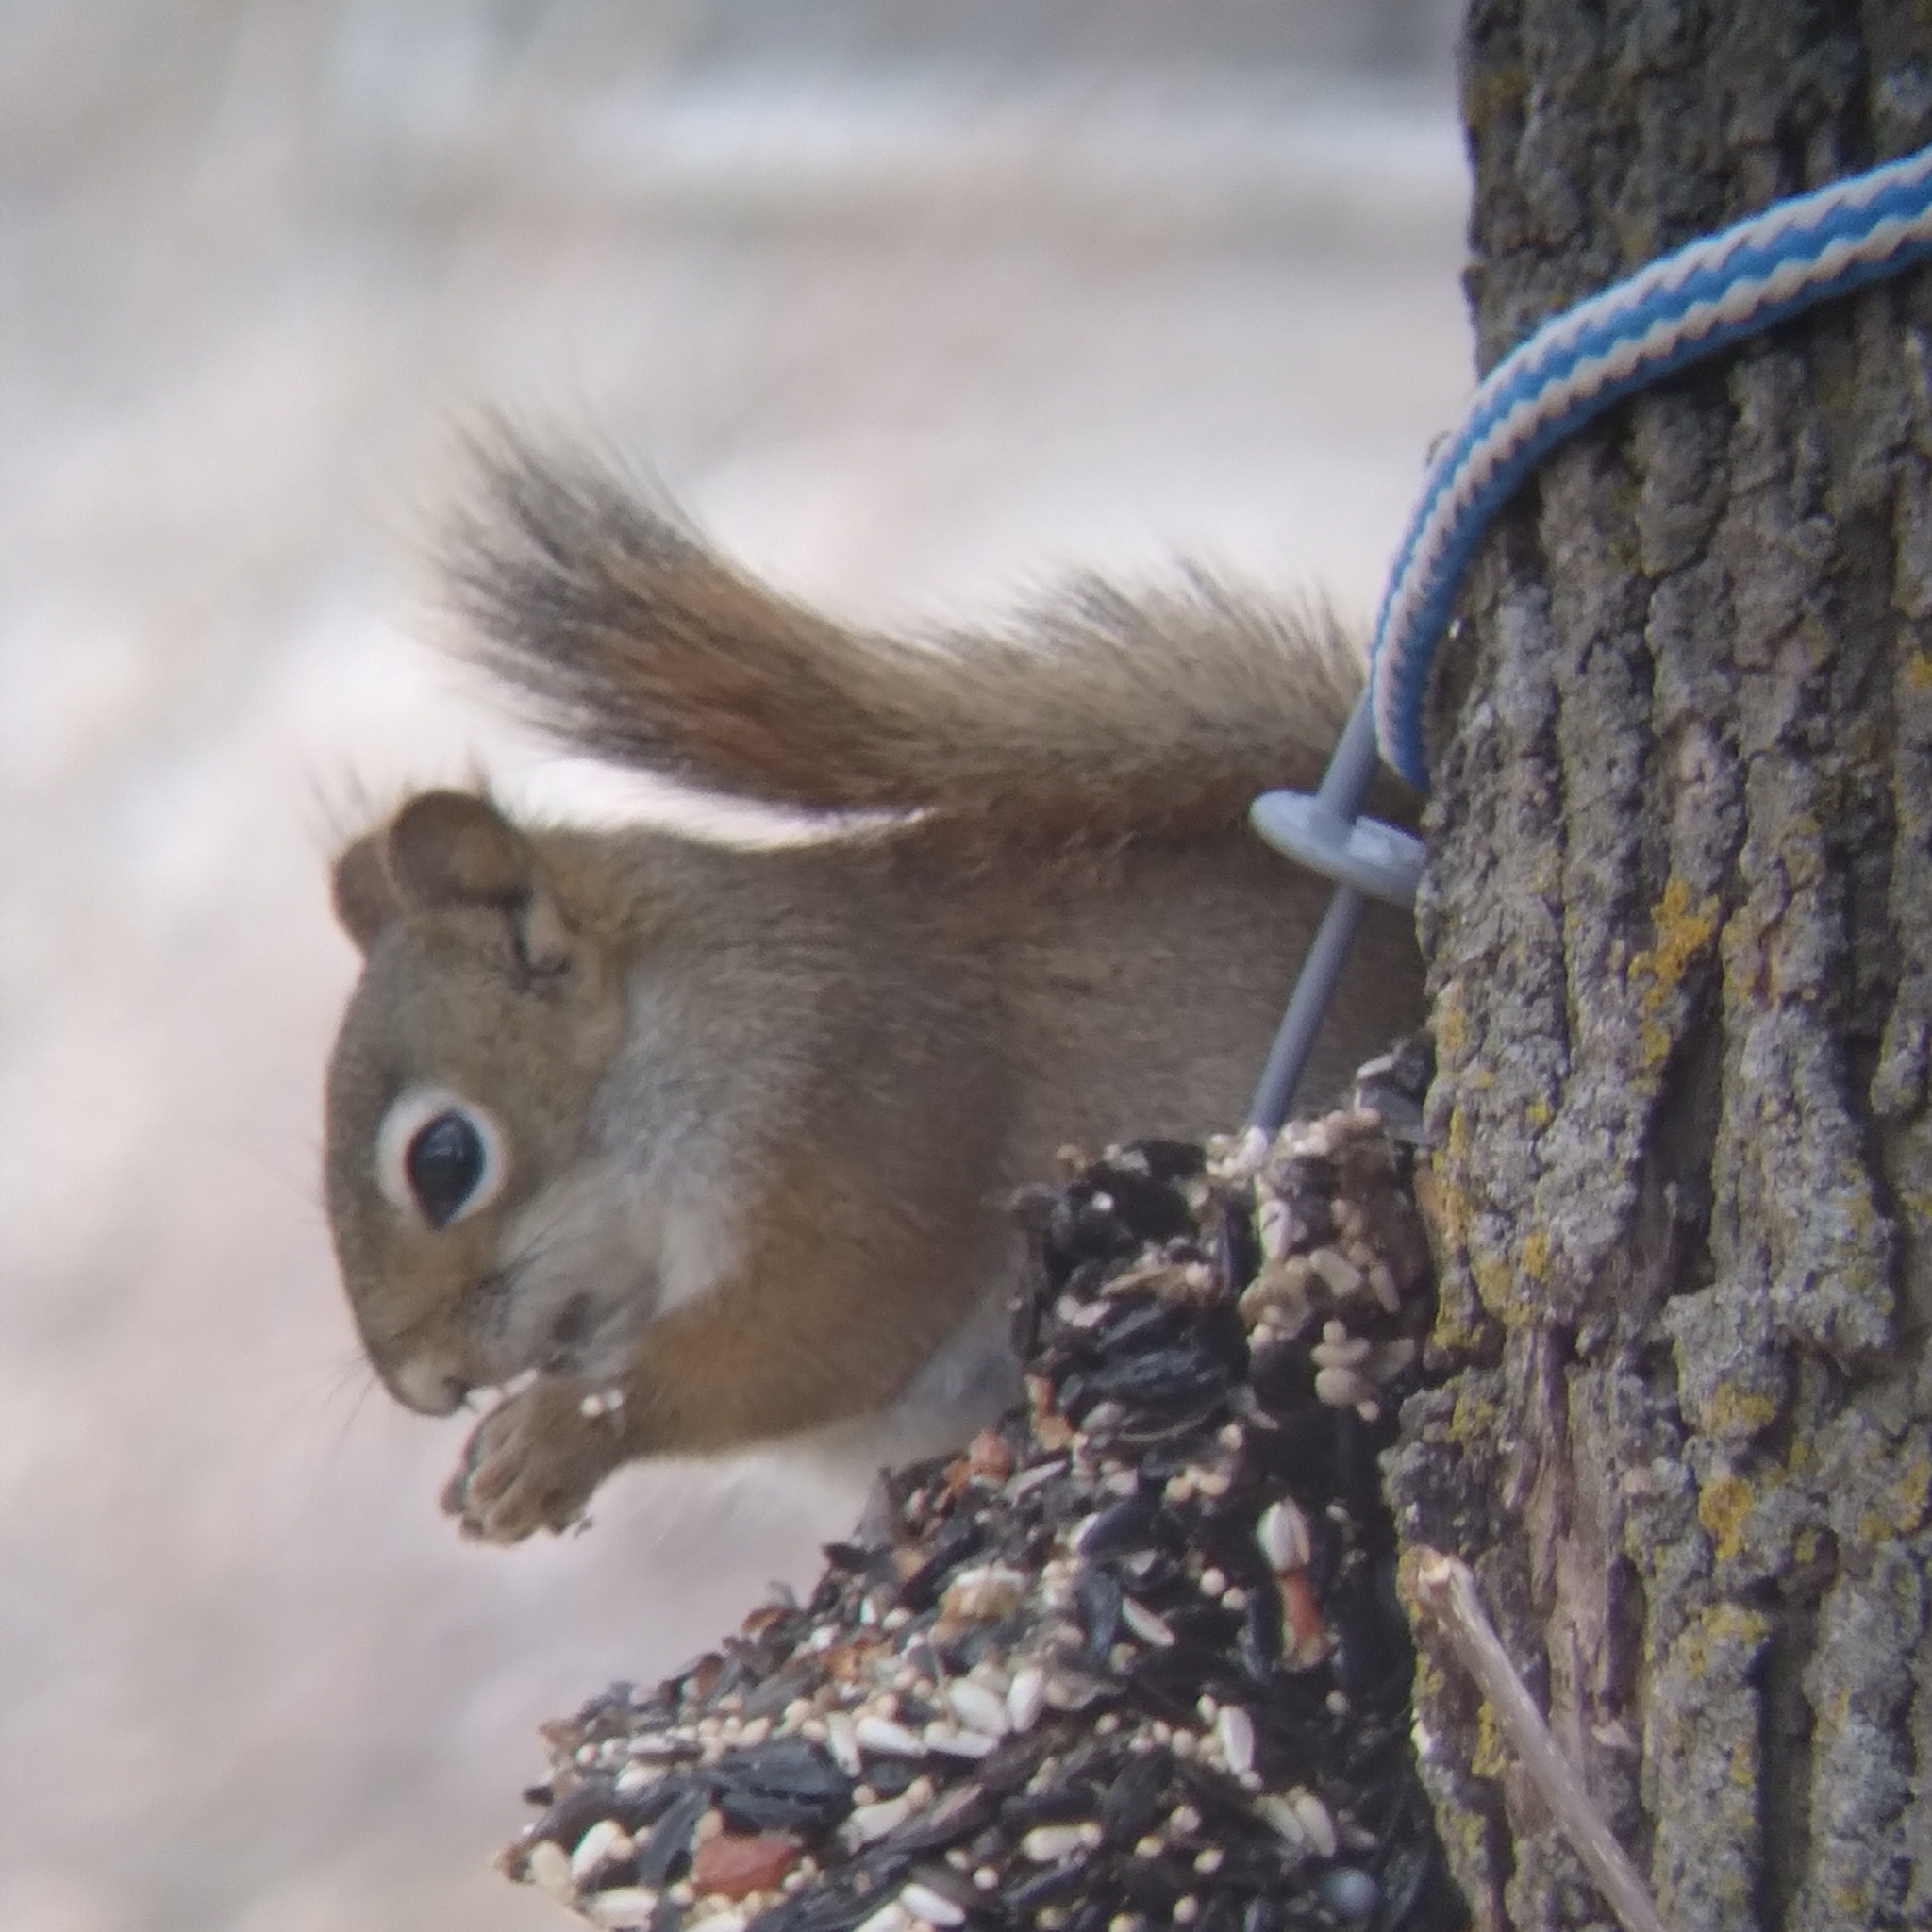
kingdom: Animalia
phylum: Chordata
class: Mammalia
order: Rodentia
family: Sciuridae
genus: Tamiasciurus
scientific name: Tamiasciurus hudsonicus
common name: Red squirrel
